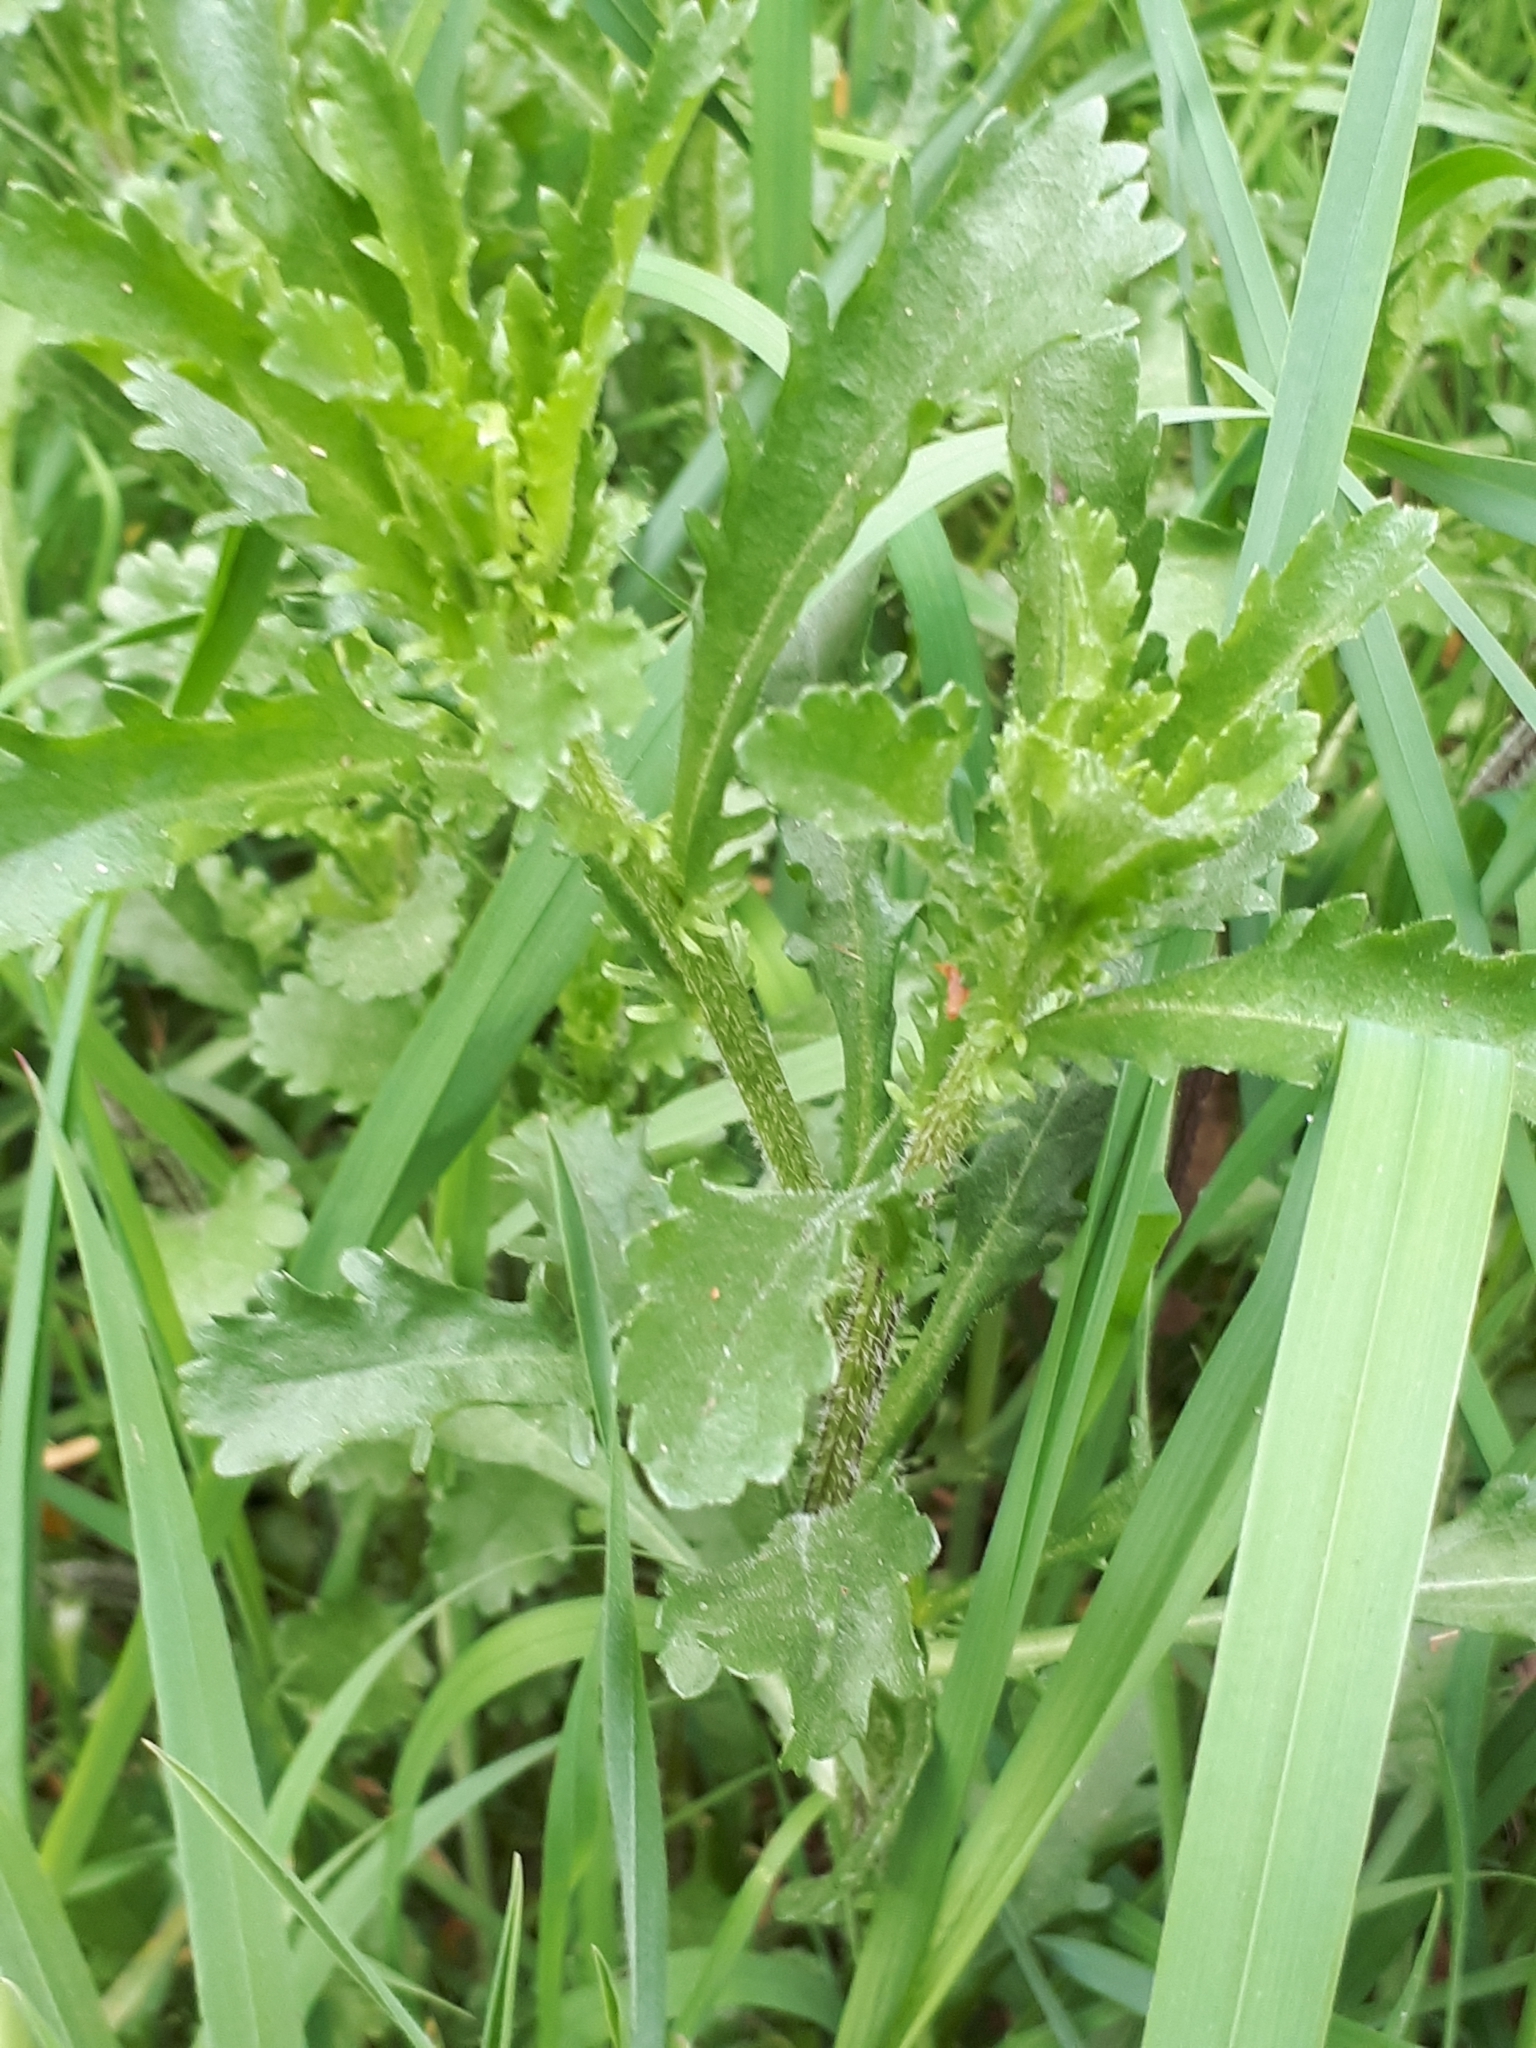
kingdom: Plantae
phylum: Tracheophyta
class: Magnoliopsida
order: Asterales
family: Asteraceae
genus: Leucanthemum
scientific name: Leucanthemum vulgare
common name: Oxeye daisy
